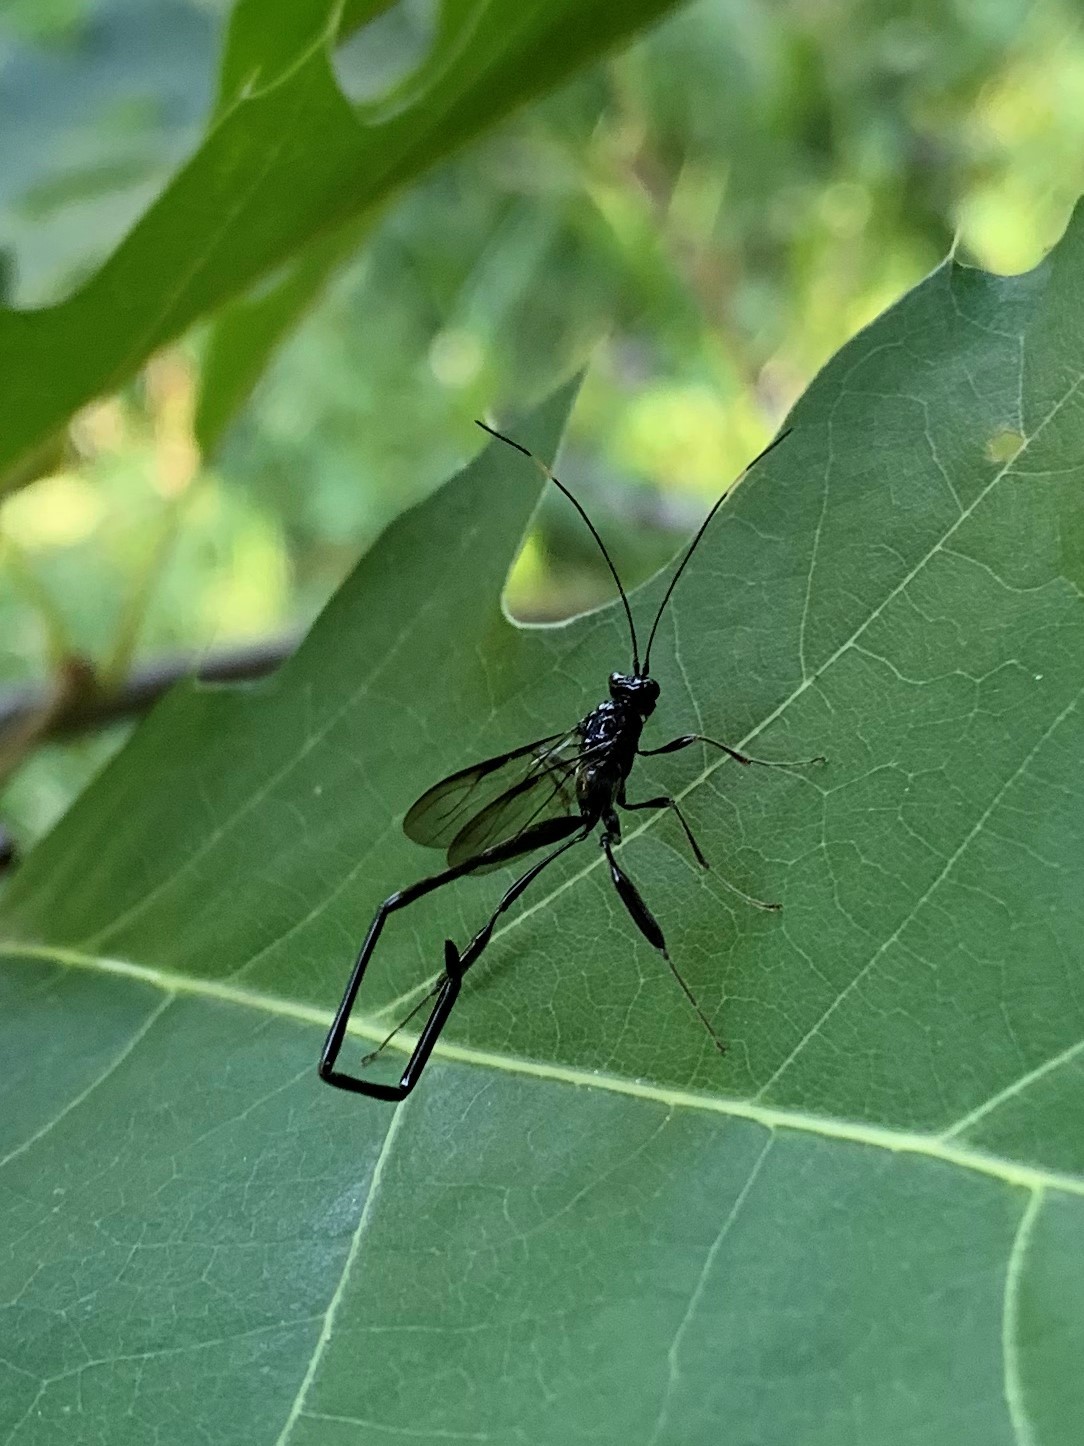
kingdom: Animalia
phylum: Arthropoda
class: Insecta
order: Hymenoptera
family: Pelecinidae
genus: Pelecinus
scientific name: Pelecinus polyturator
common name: American pelecinid wasp
